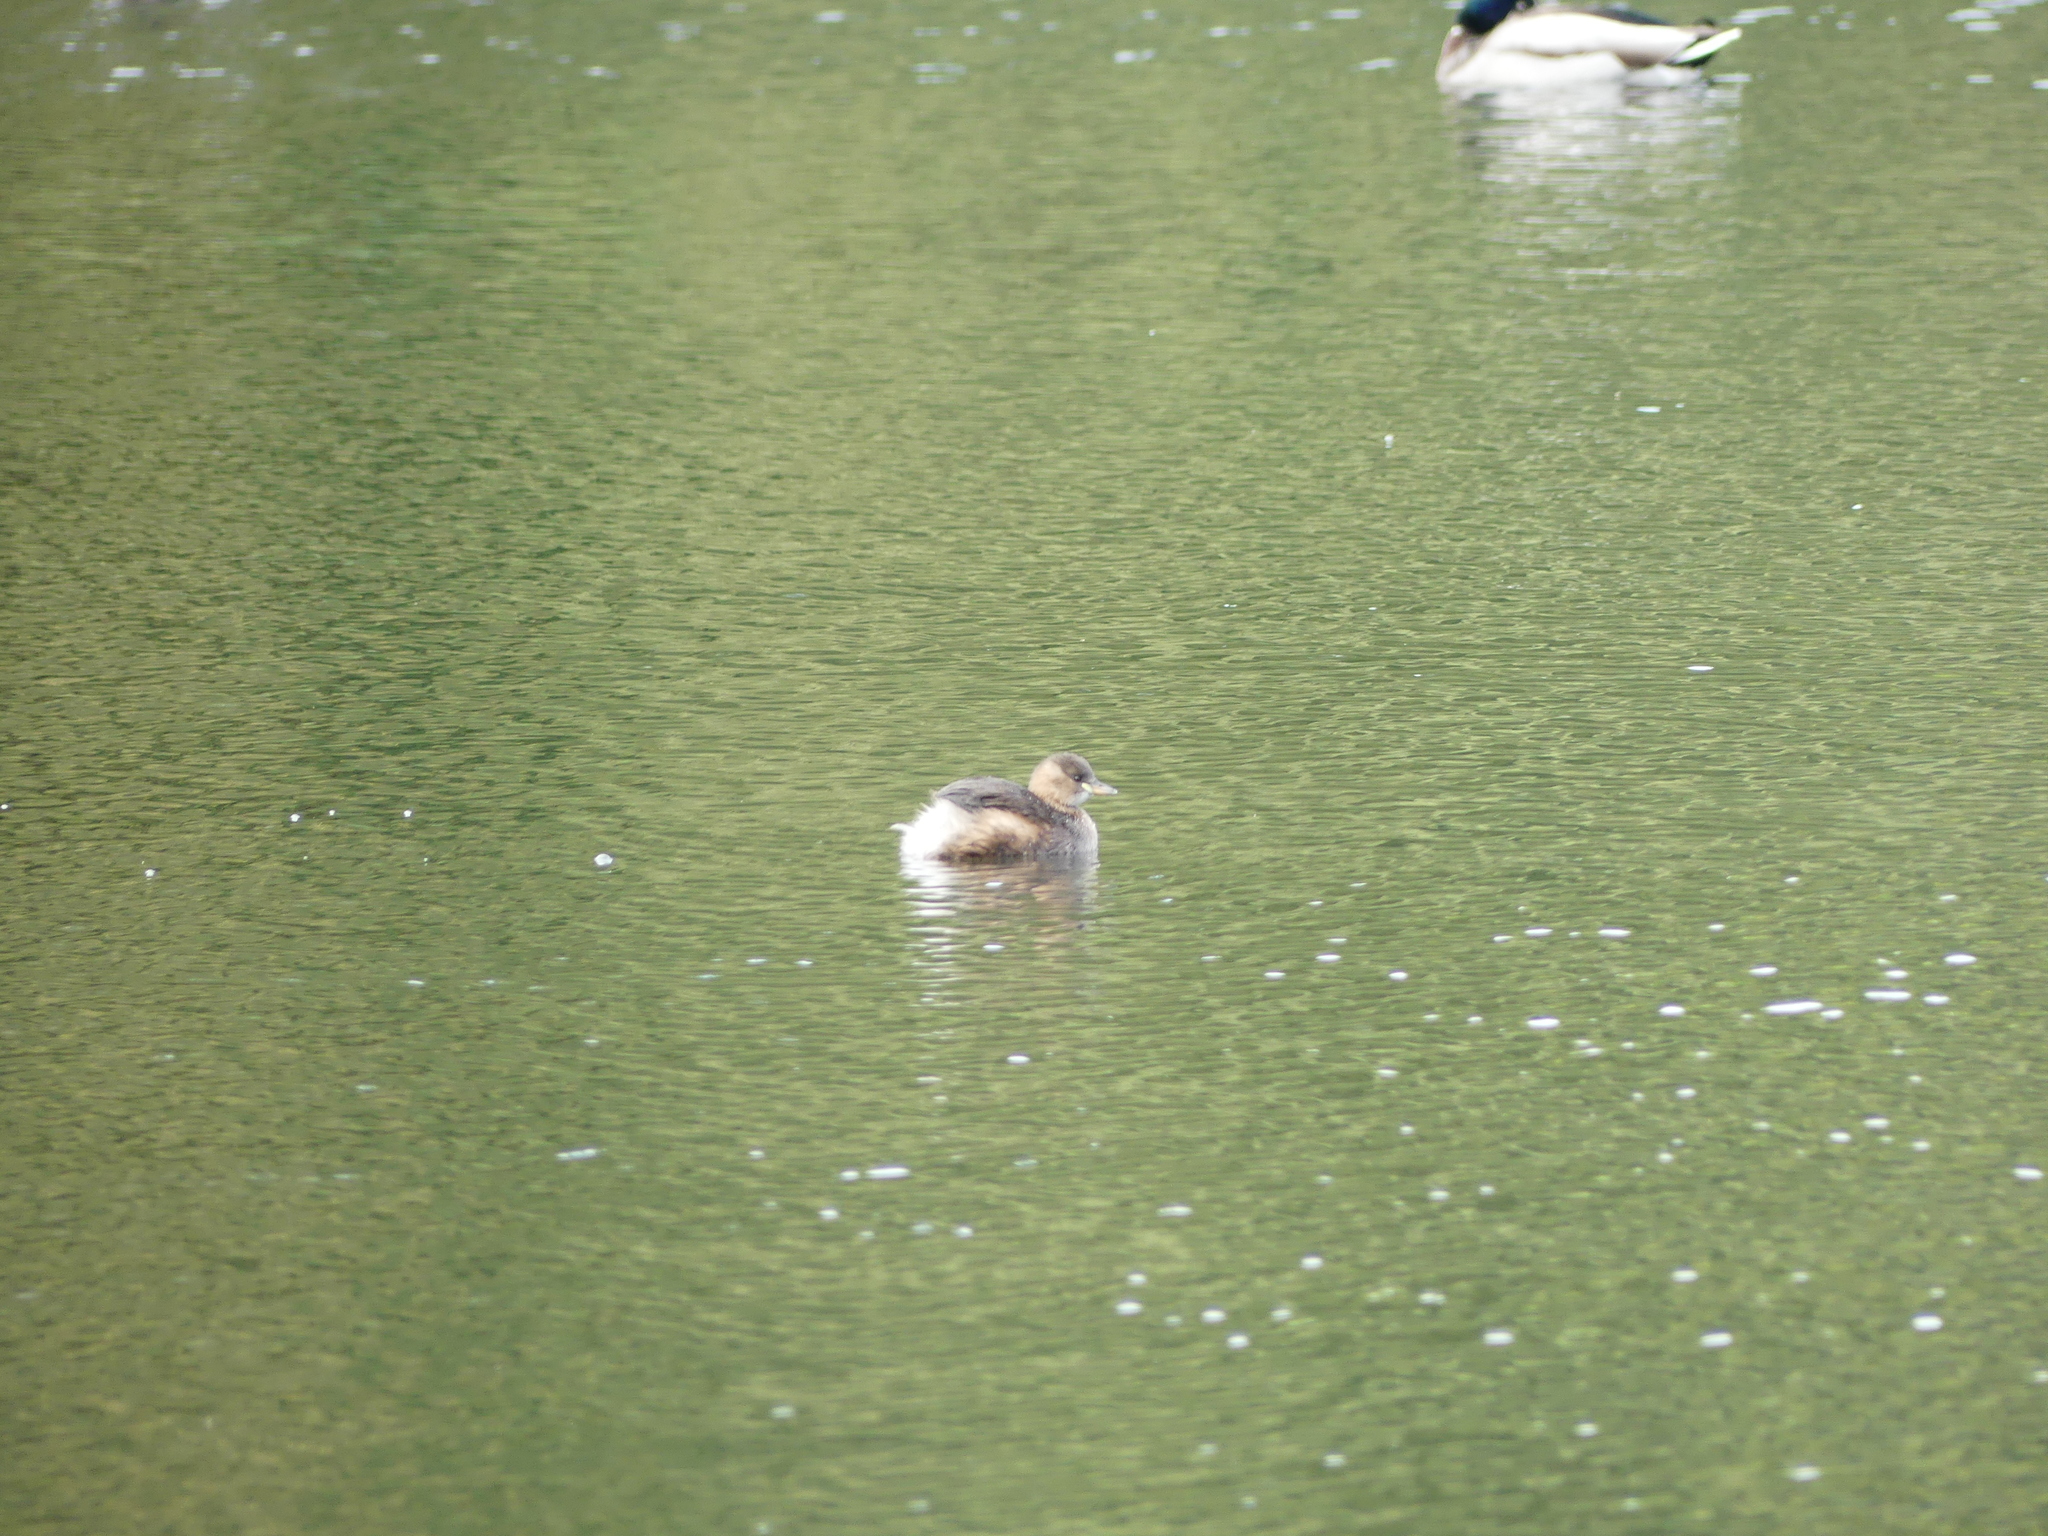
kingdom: Animalia
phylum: Chordata
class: Aves
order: Podicipediformes
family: Podicipedidae
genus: Tachybaptus
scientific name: Tachybaptus ruficollis
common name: Little grebe
